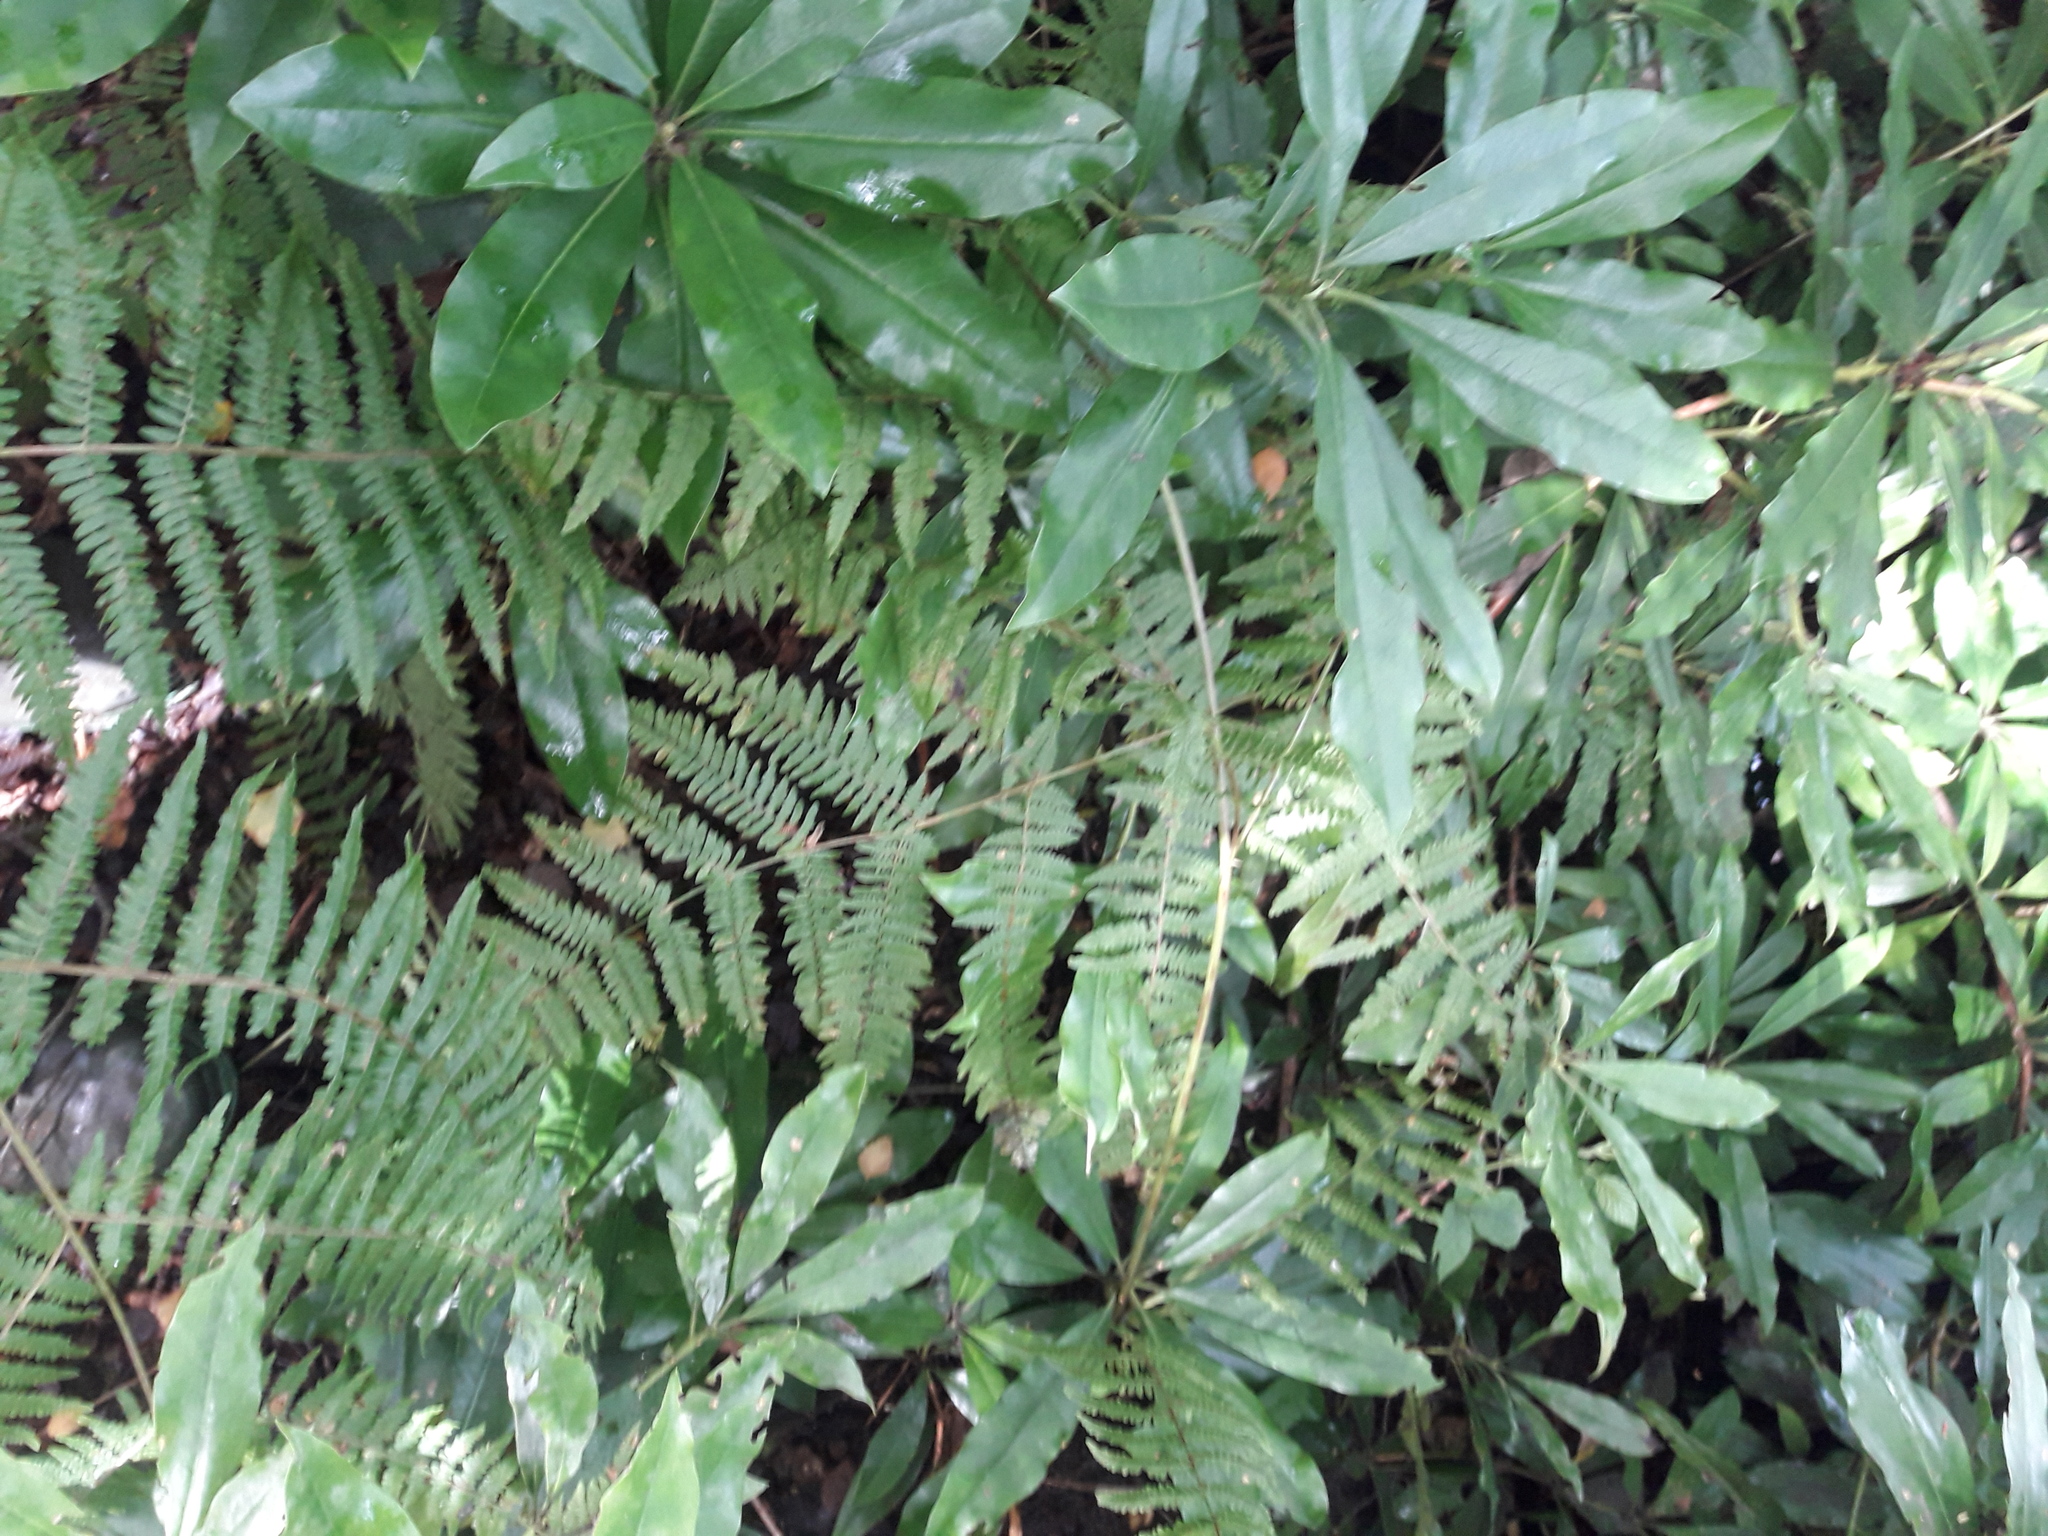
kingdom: Plantae
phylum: Tracheophyta
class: Magnoliopsida
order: Ericales
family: Ericaceae
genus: Rhododendron
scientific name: Rhododendron ponticum
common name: Rhododendron
